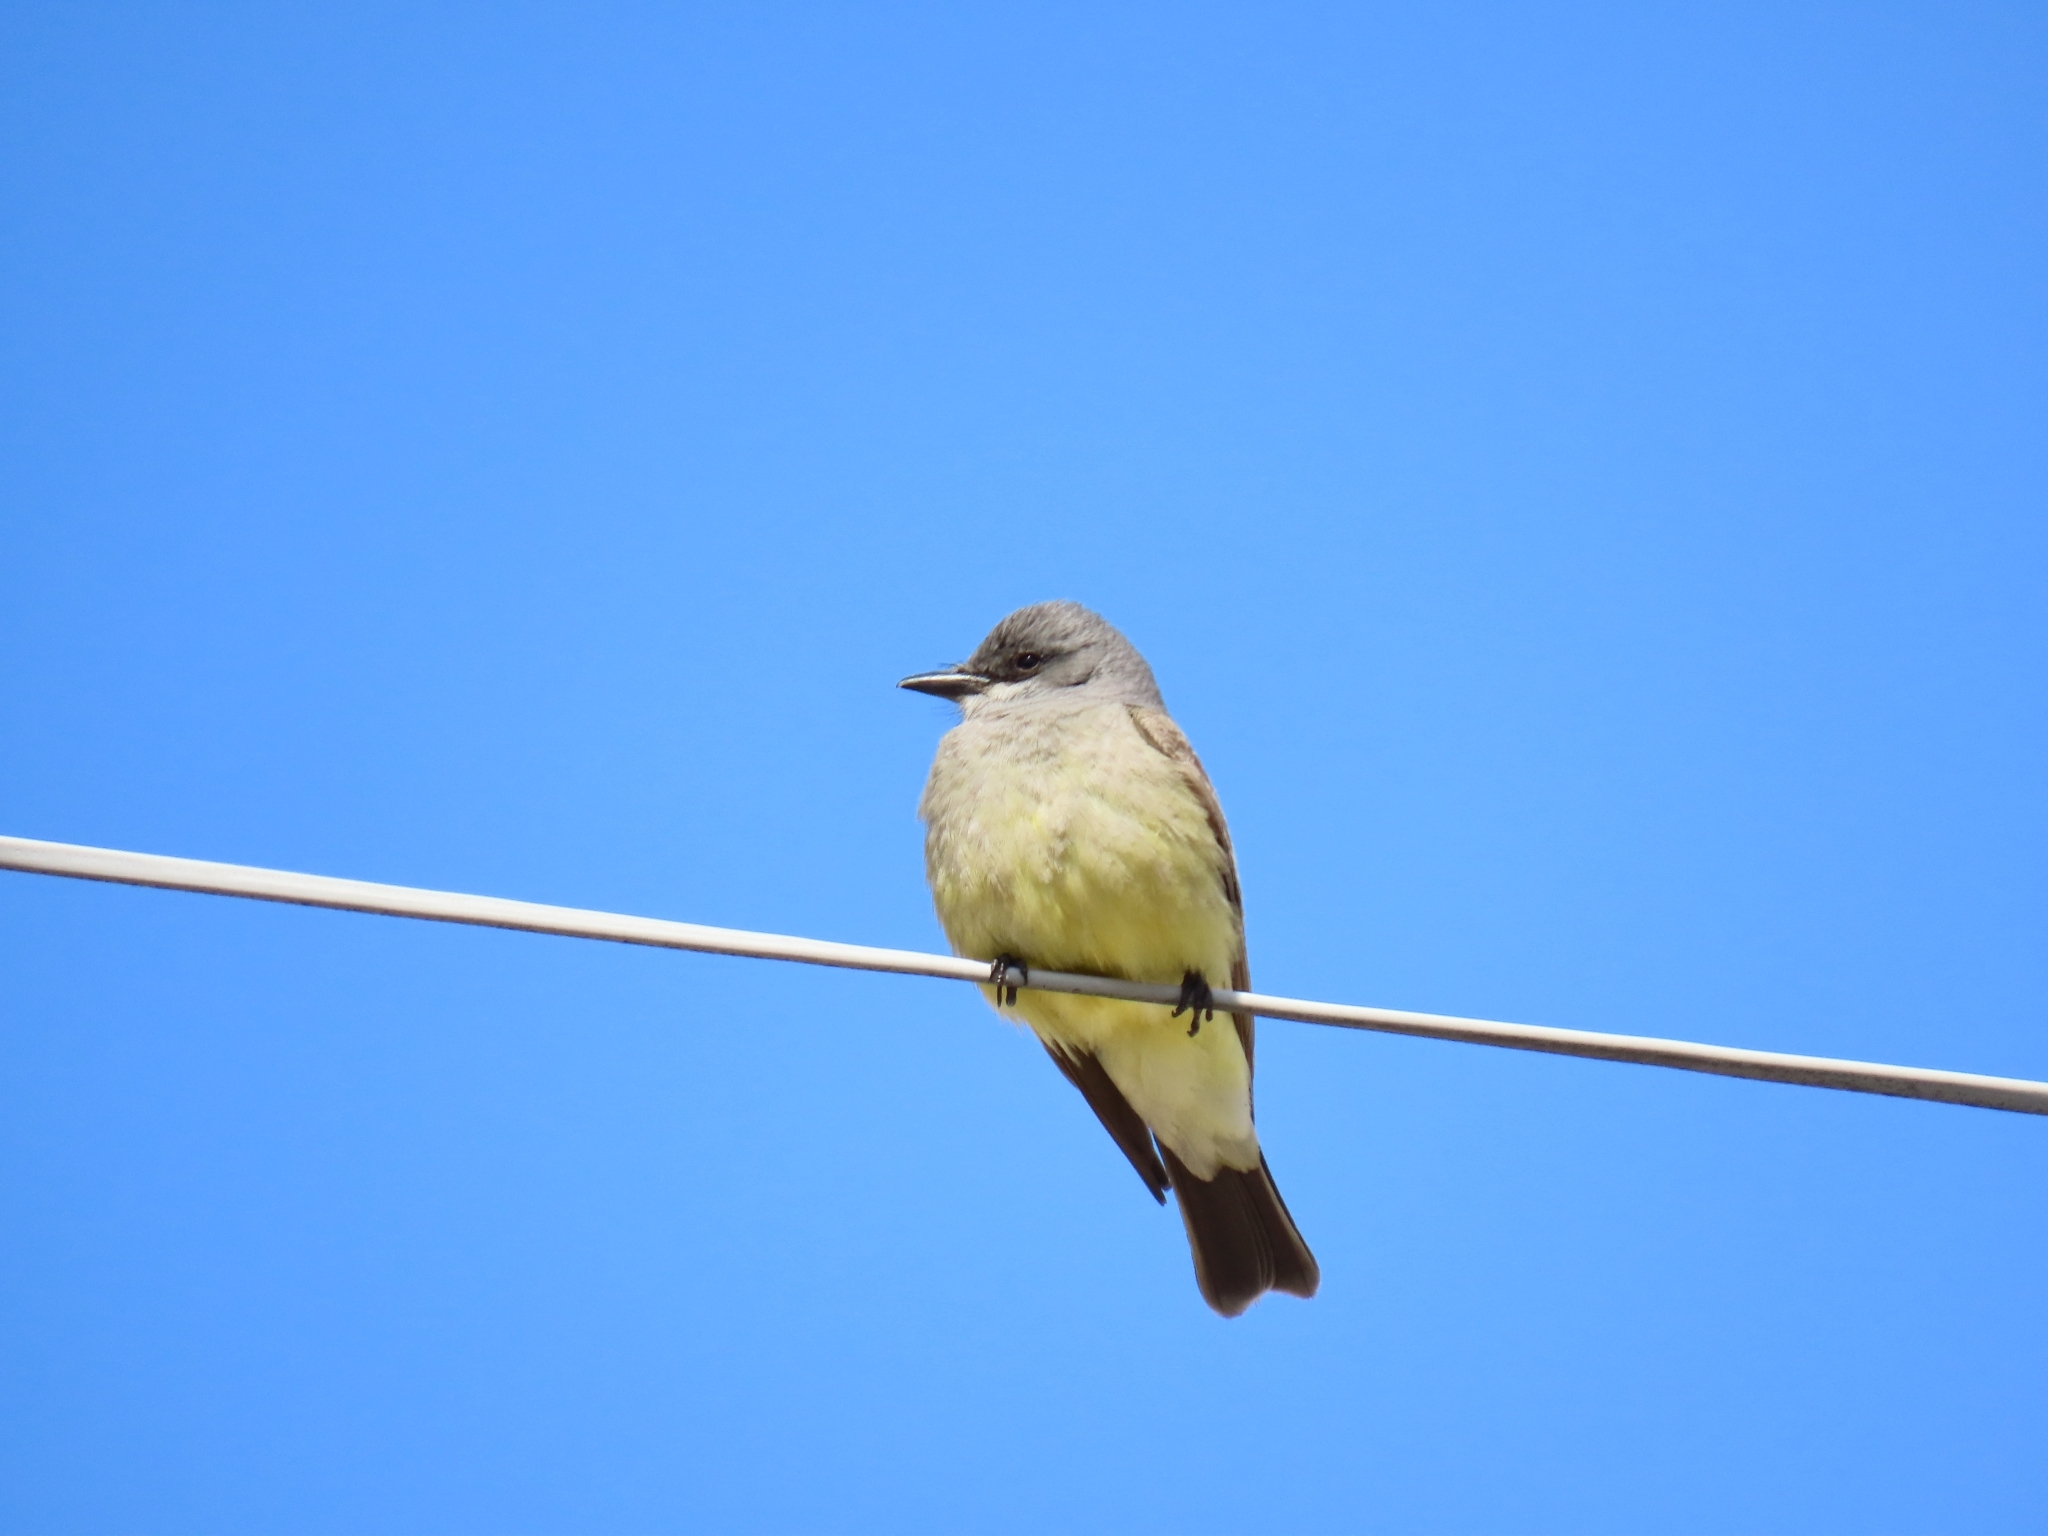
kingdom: Animalia
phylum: Chordata
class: Aves
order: Passeriformes
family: Tyrannidae
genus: Tyrannus
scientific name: Tyrannus vociferans
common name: Cassin's kingbird
